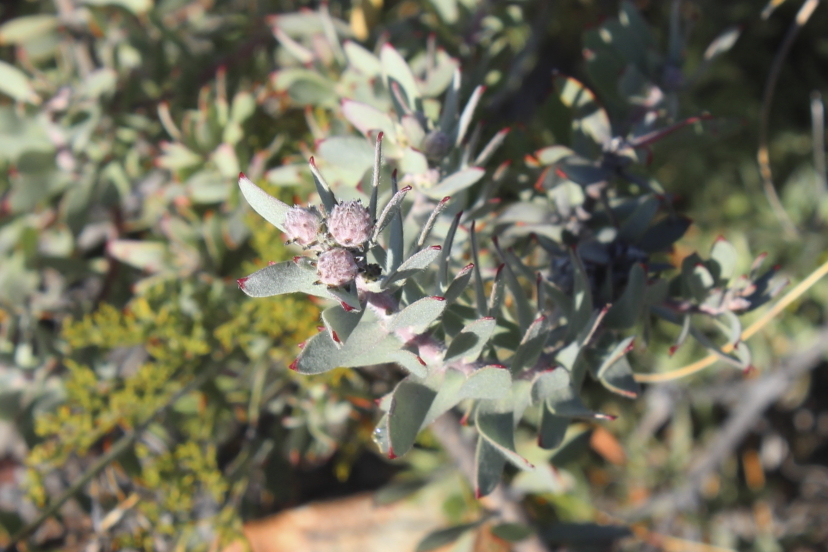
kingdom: Plantae
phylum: Tracheophyta
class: Magnoliopsida
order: Proteales
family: Proteaceae
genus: Leucospermum
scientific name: Leucospermum wittebergense
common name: Swartberg pincushion
